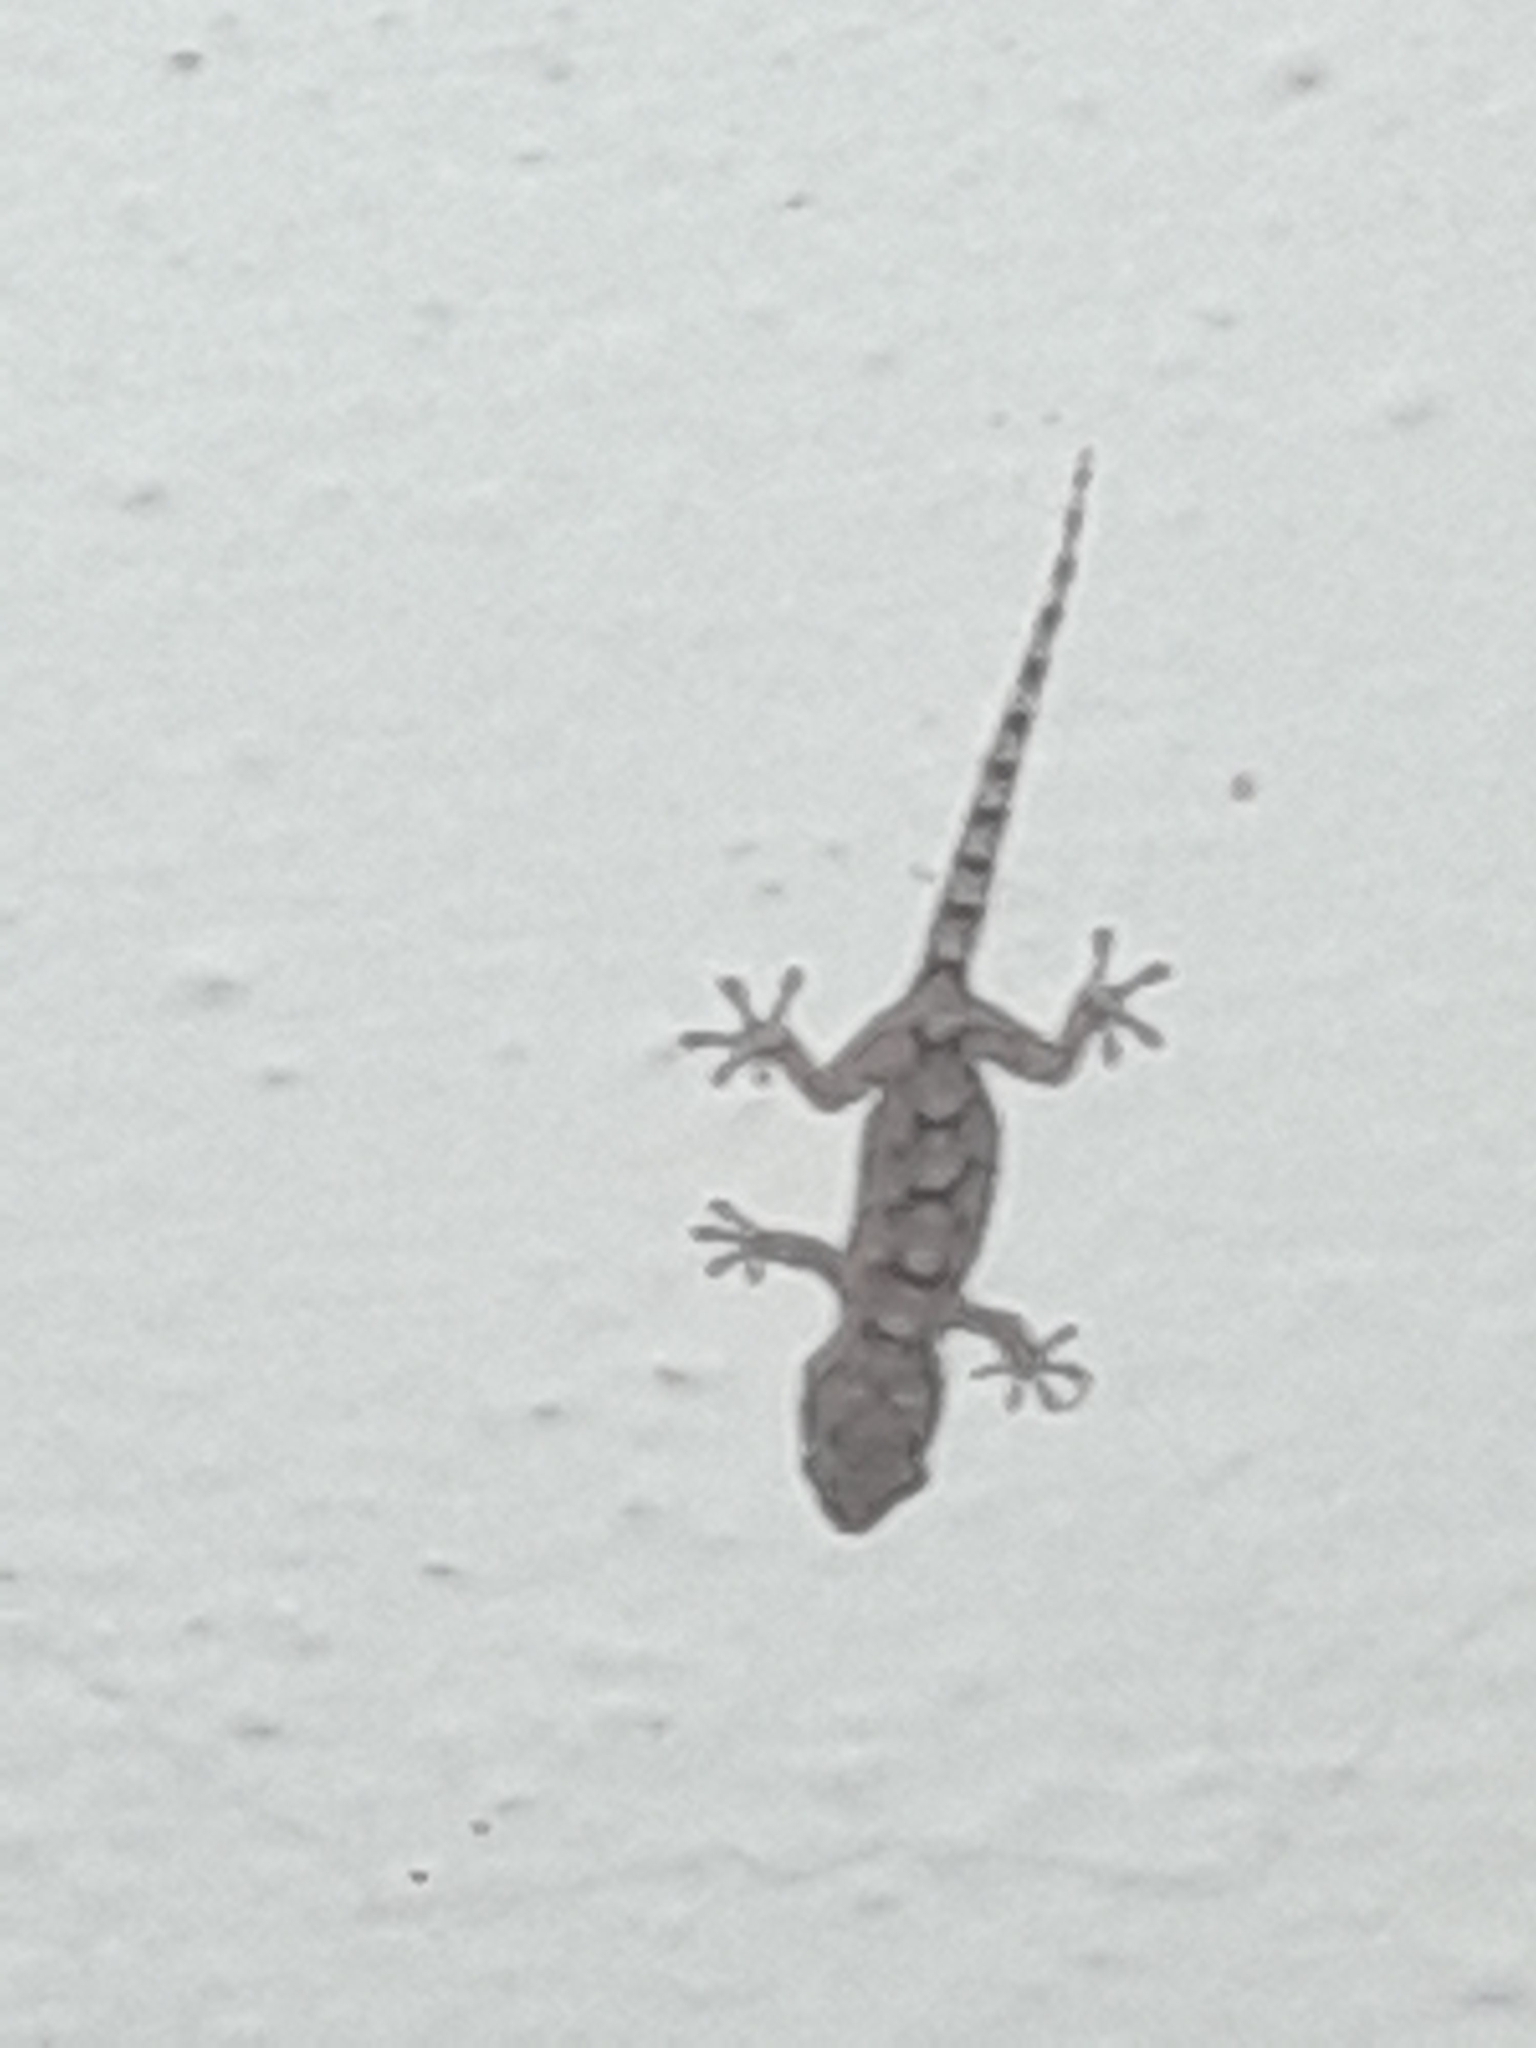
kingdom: Animalia
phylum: Chordata
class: Squamata
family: Phyllodactylidae
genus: Tarentola
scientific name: Tarentola mauritanica
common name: Moorish gecko
